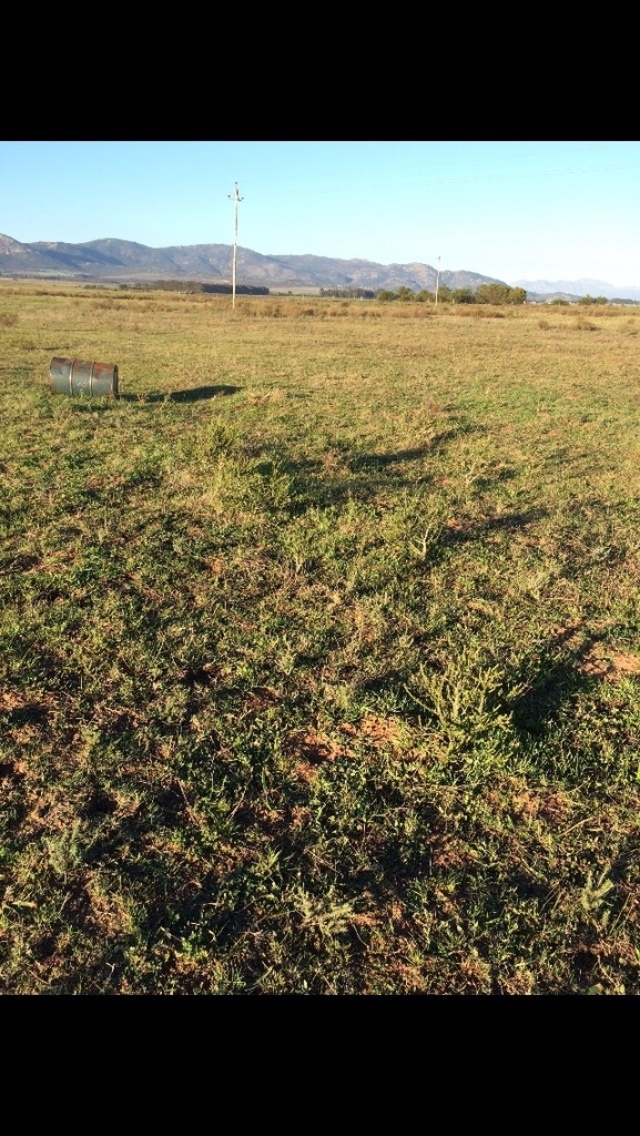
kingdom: Plantae
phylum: Tracheophyta
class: Magnoliopsida
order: Fabales
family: Fabaceae
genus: Aspalathus
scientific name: Aspalathus aculeata
